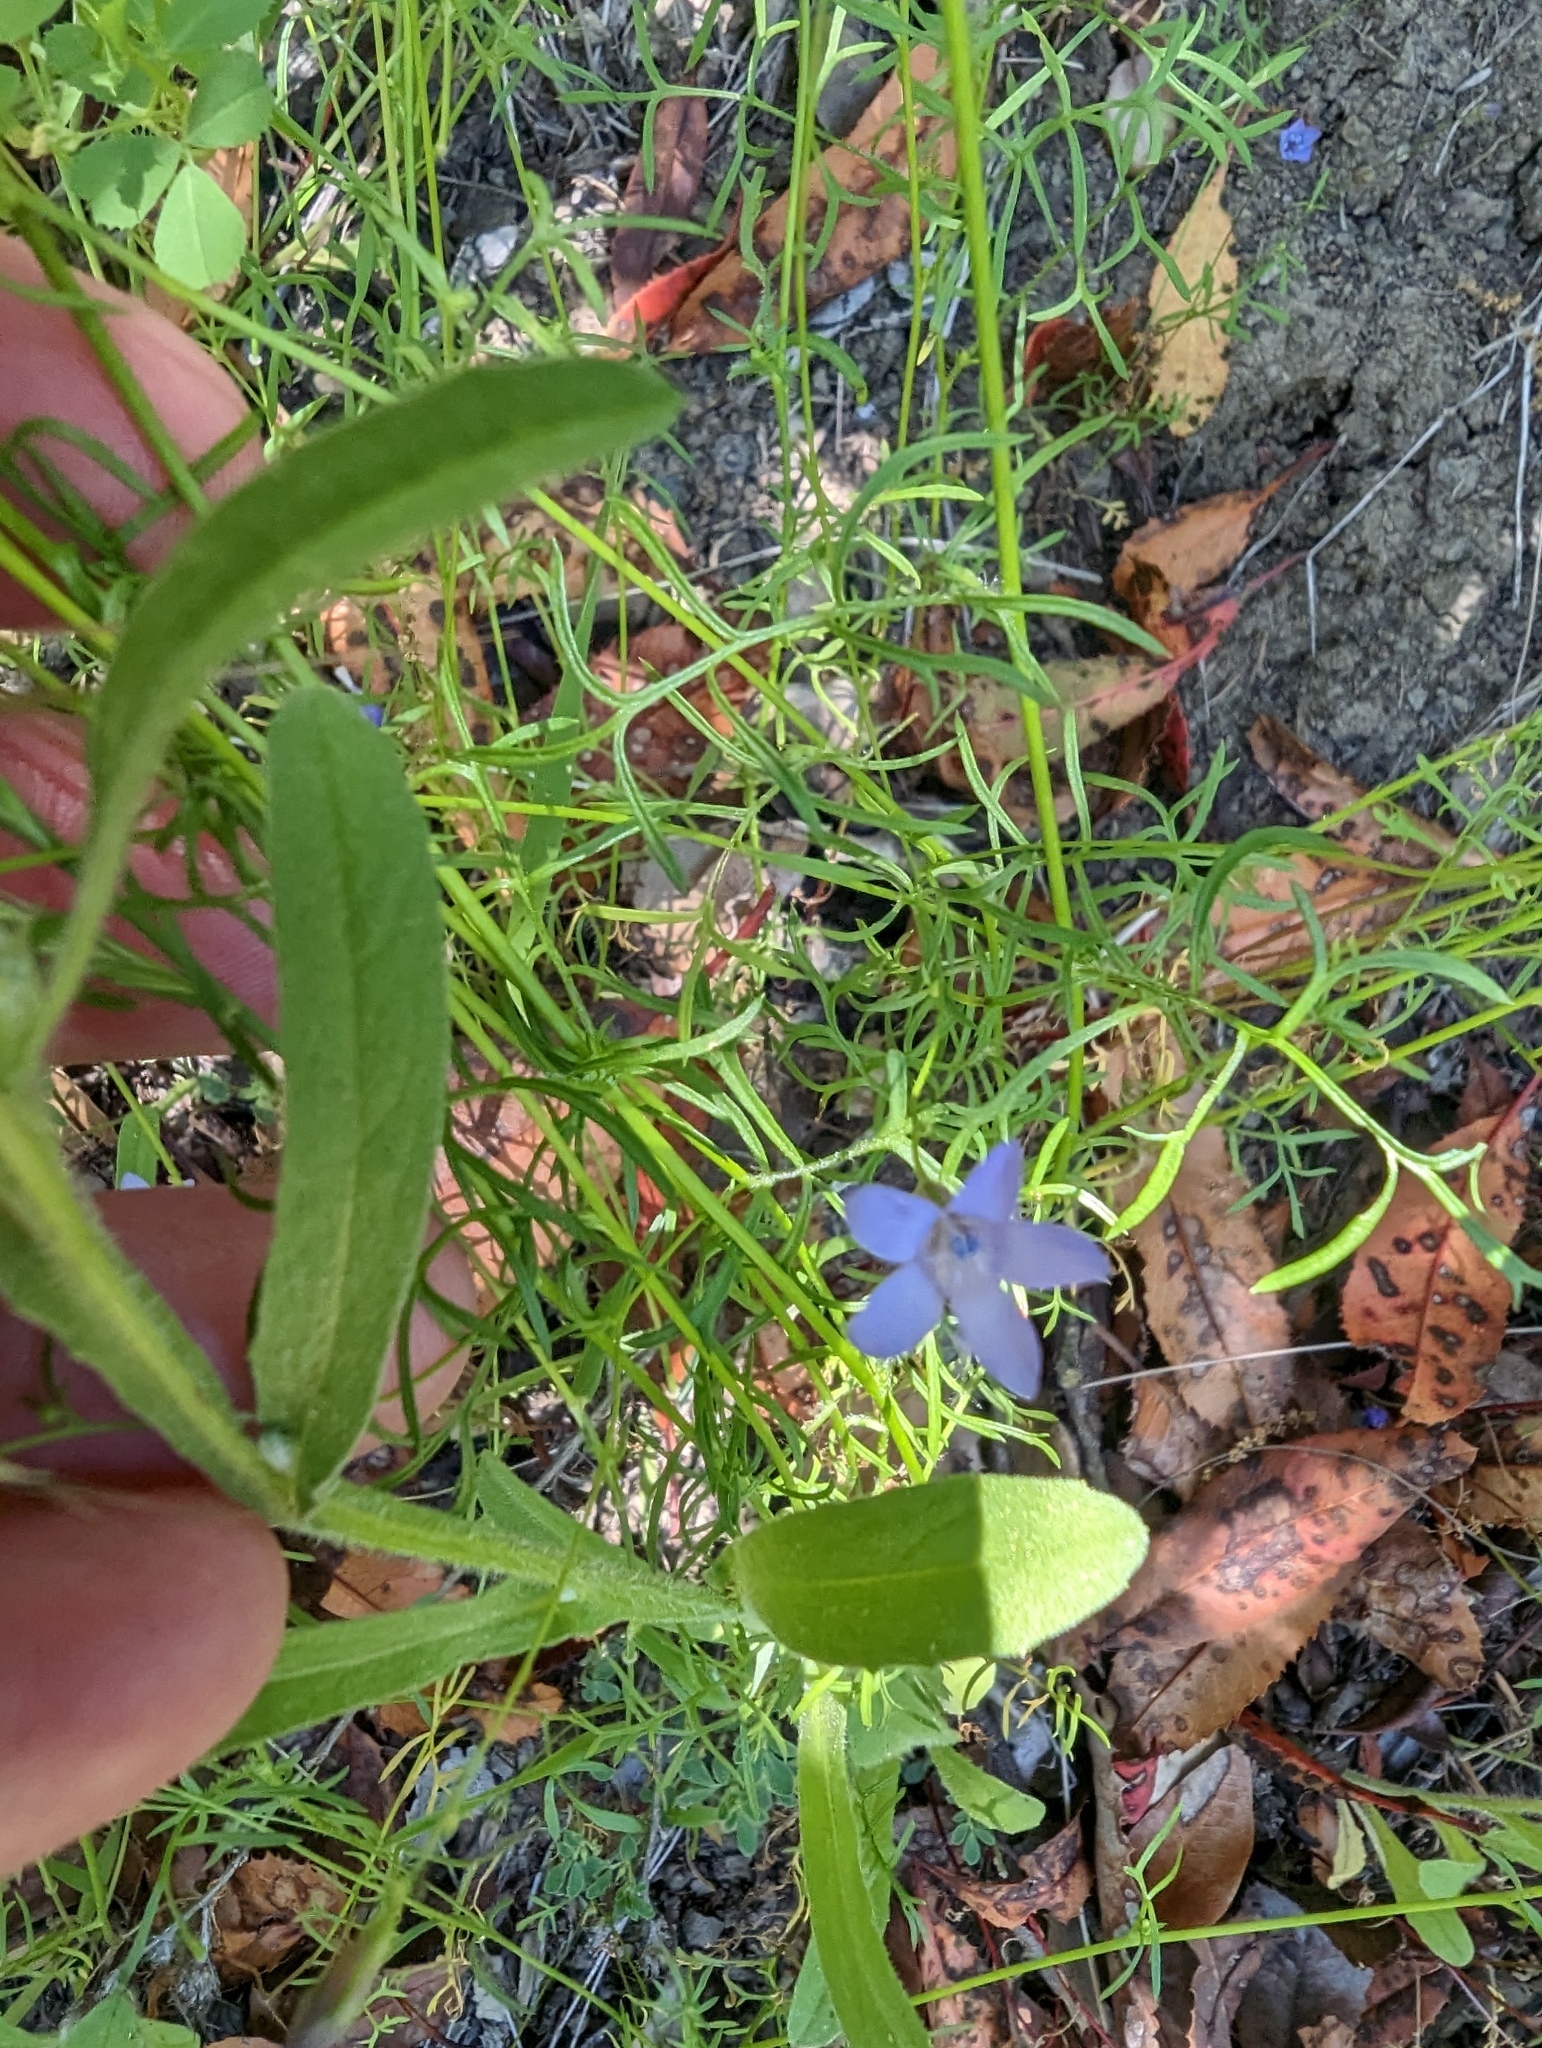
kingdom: Plantae
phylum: Tracheophyta
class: Magnoliopsida
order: Ericales
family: Polemoniaceae
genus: Gilia
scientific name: Gilia achilleifolia
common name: California gily-flower
